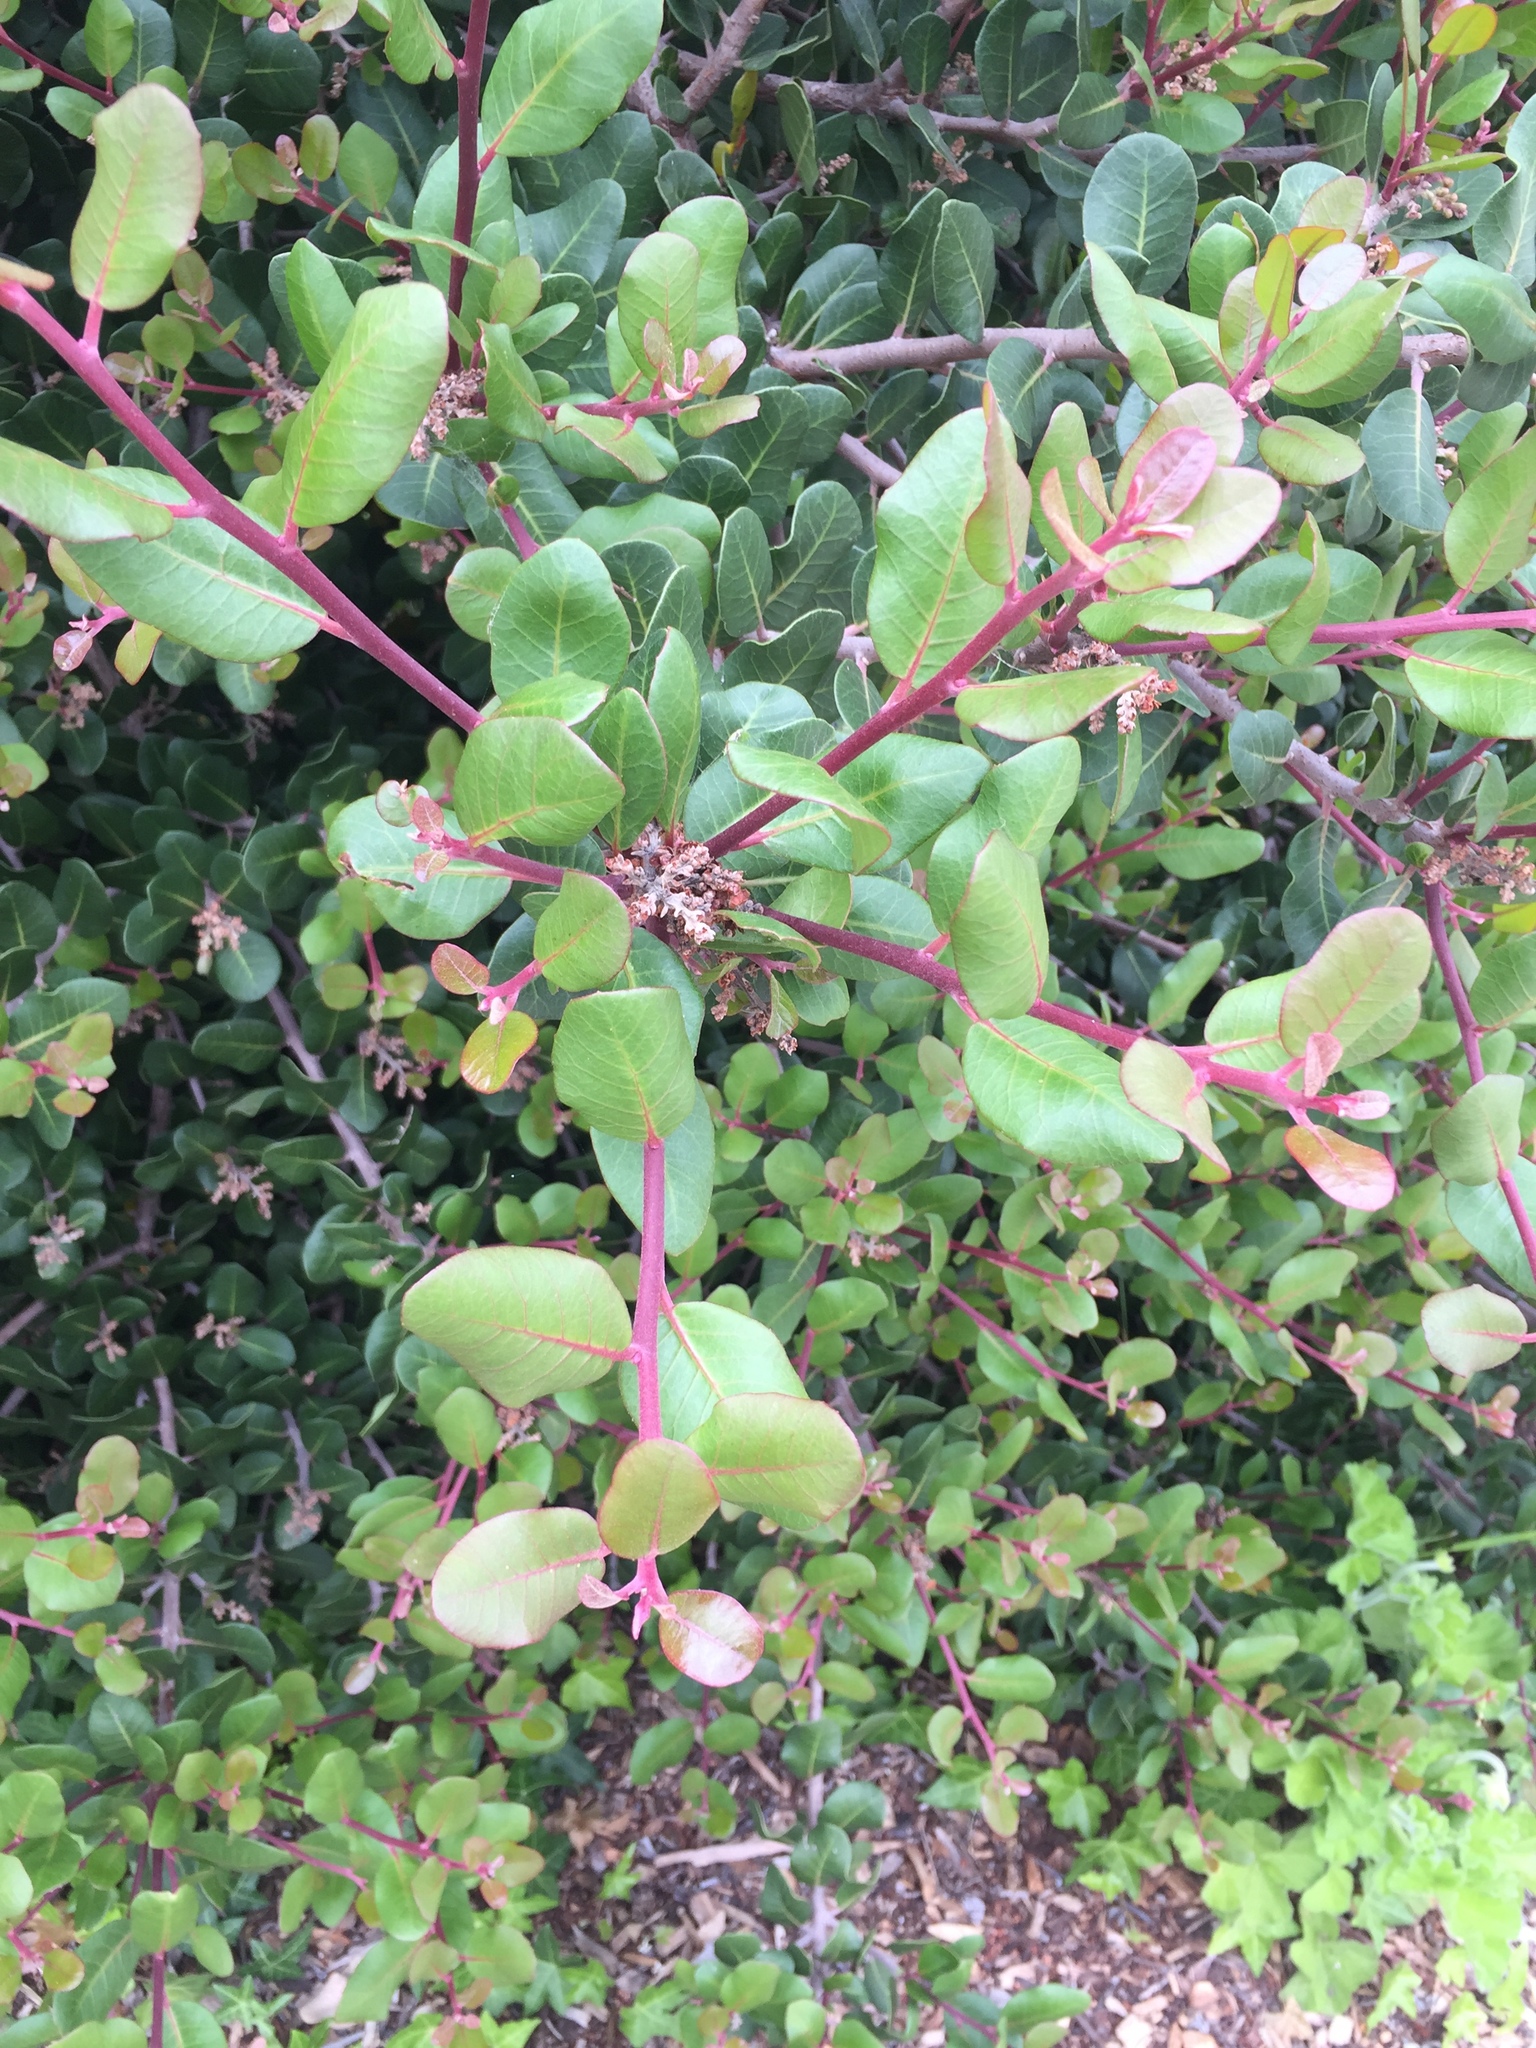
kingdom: Plantae
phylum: Tracheophyta
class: Magnoliopsida
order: Sapindales
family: Anacardiaceae
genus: Rhus
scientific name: Rhus integrifolia
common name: Lemonade sumac
